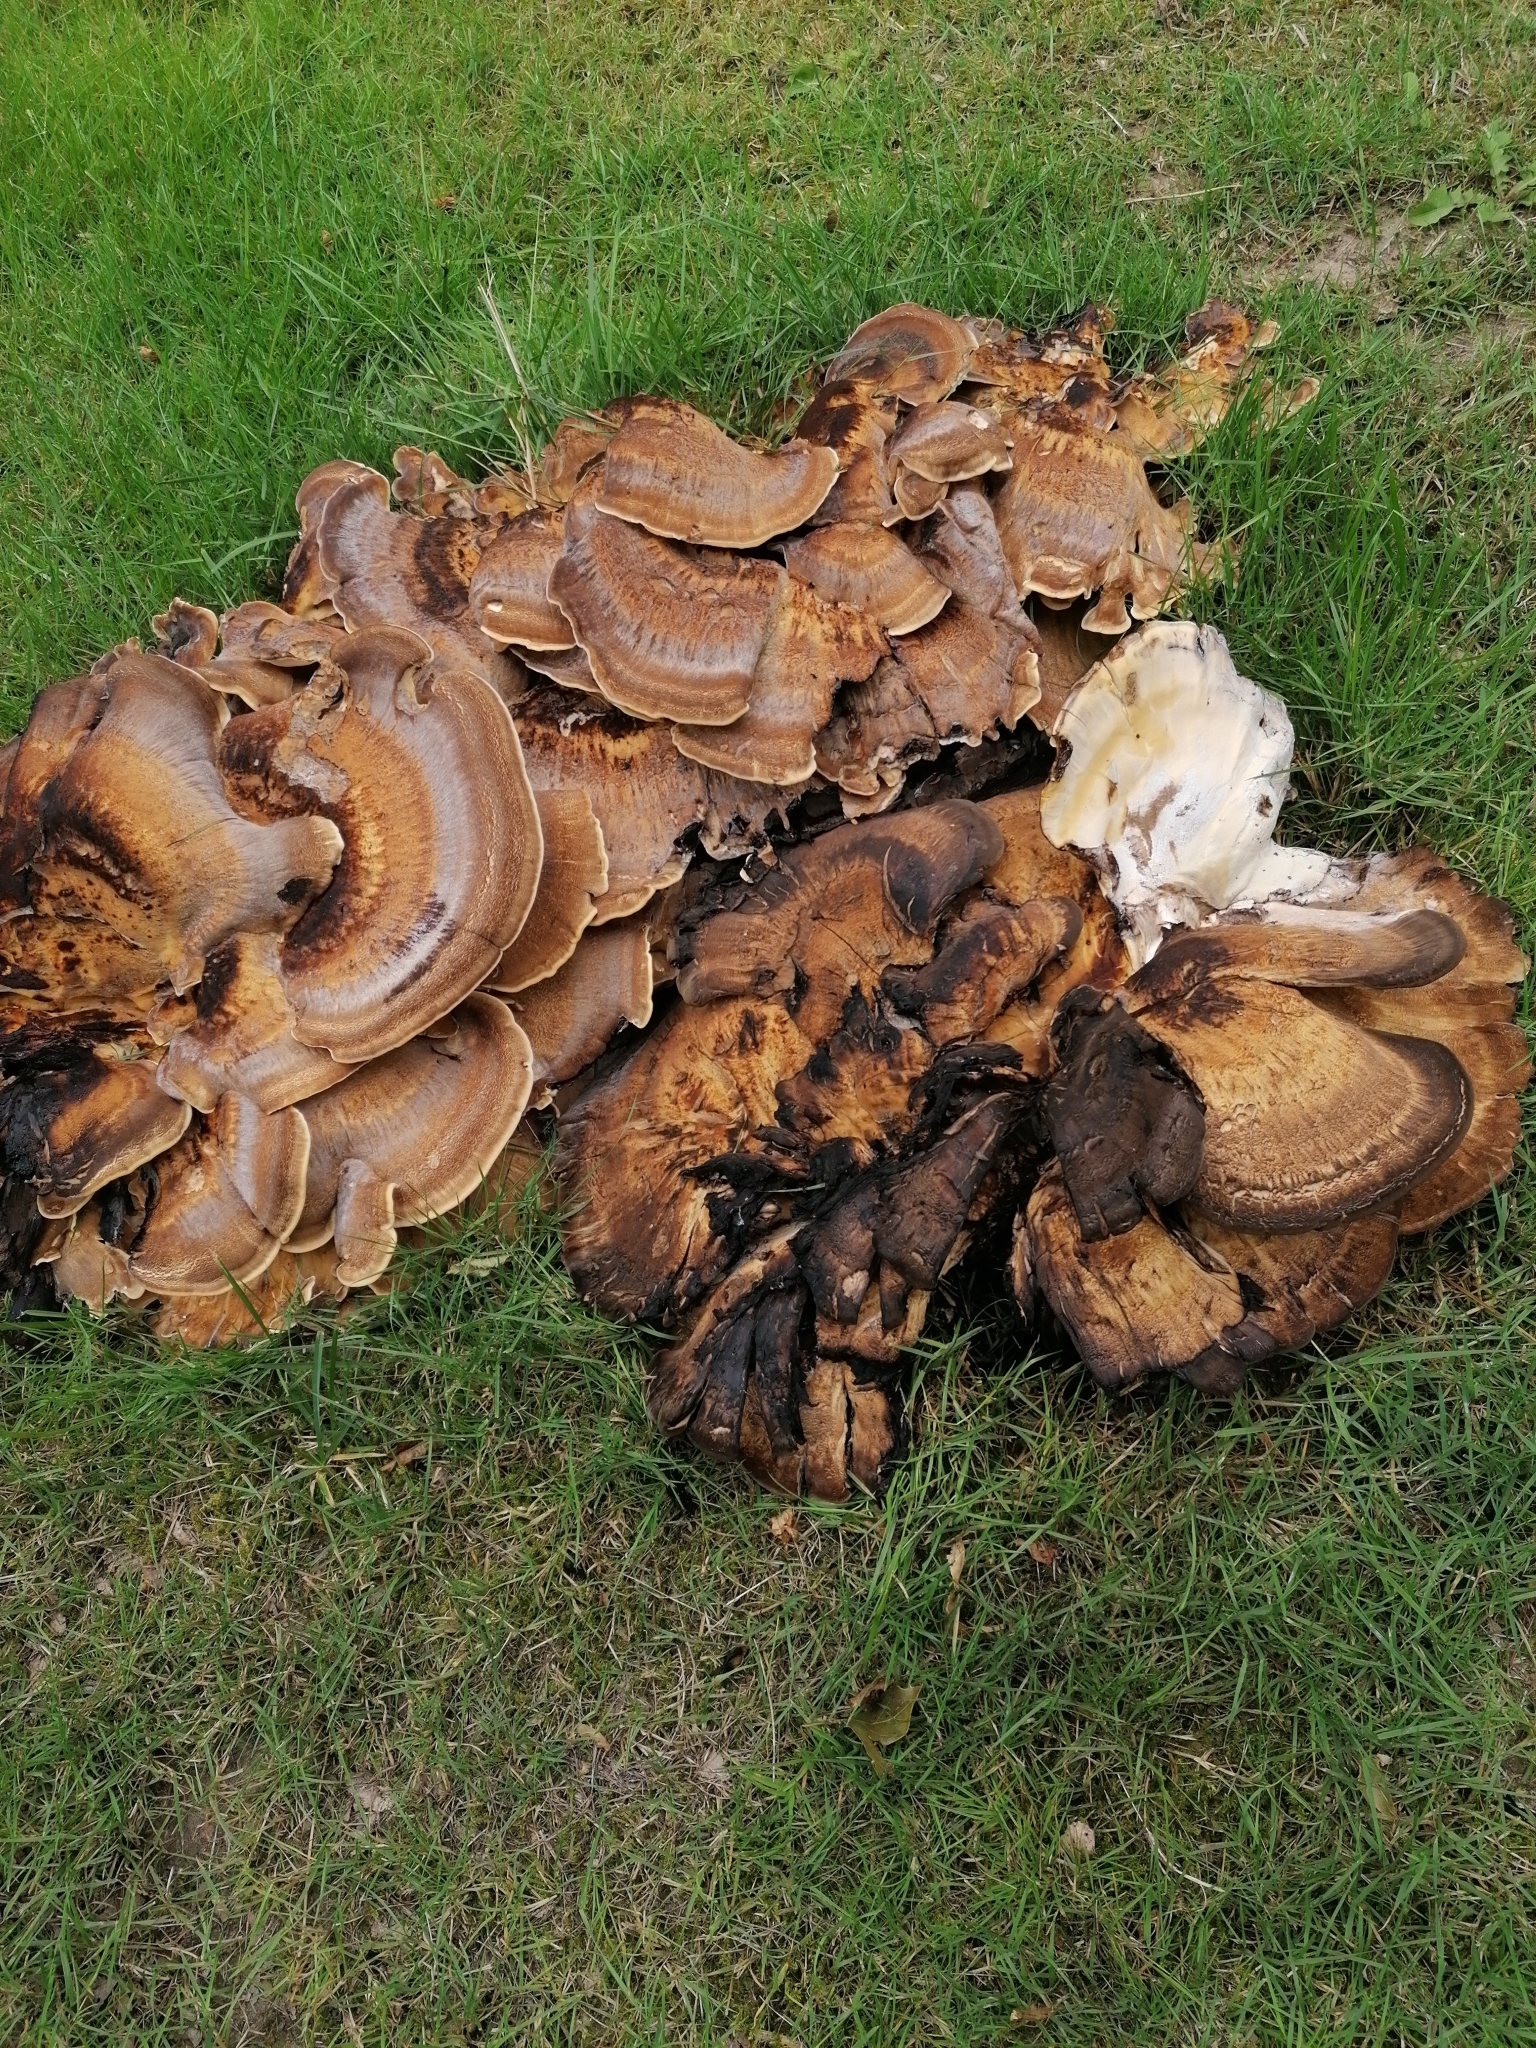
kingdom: Fungi
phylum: Basidiomycota
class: Agaricomycetes
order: Polyporales
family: Meripilaceae
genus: Meripilus
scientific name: Meripilus giganteus
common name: Giant polypore
